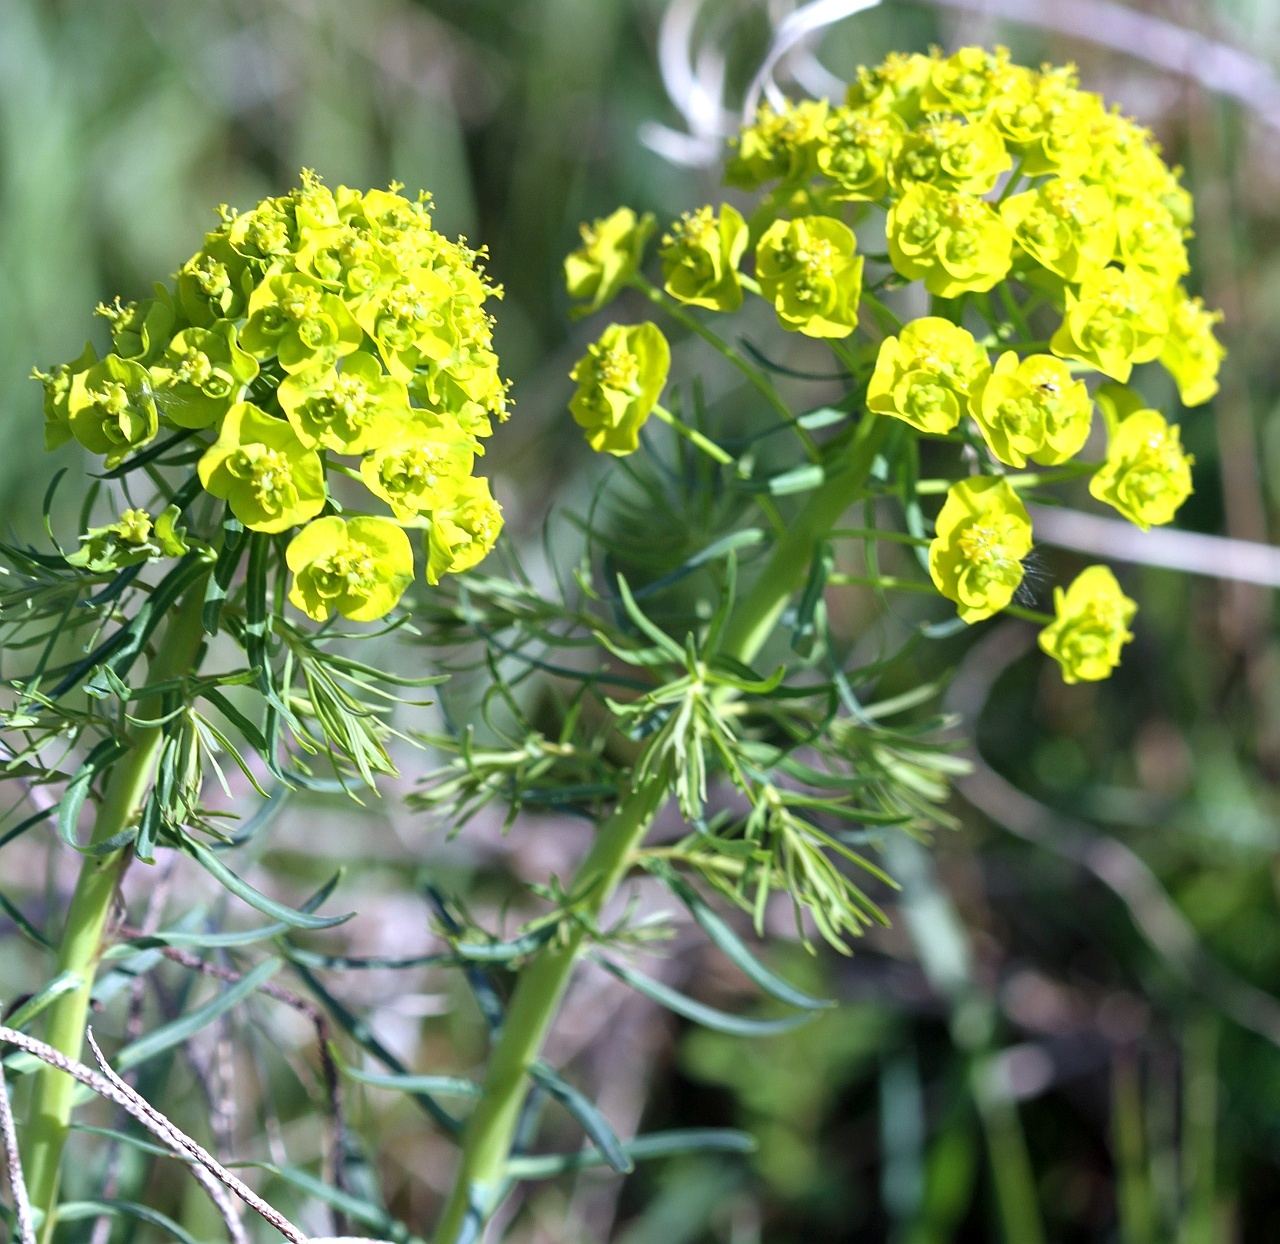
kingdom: Plantae
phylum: Tracheophyta
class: Magnoliopsida
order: Malpighiales
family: Euphorbiaceae
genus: Euphorbia
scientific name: Euphorbia cyparissias
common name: Cypress spurge
